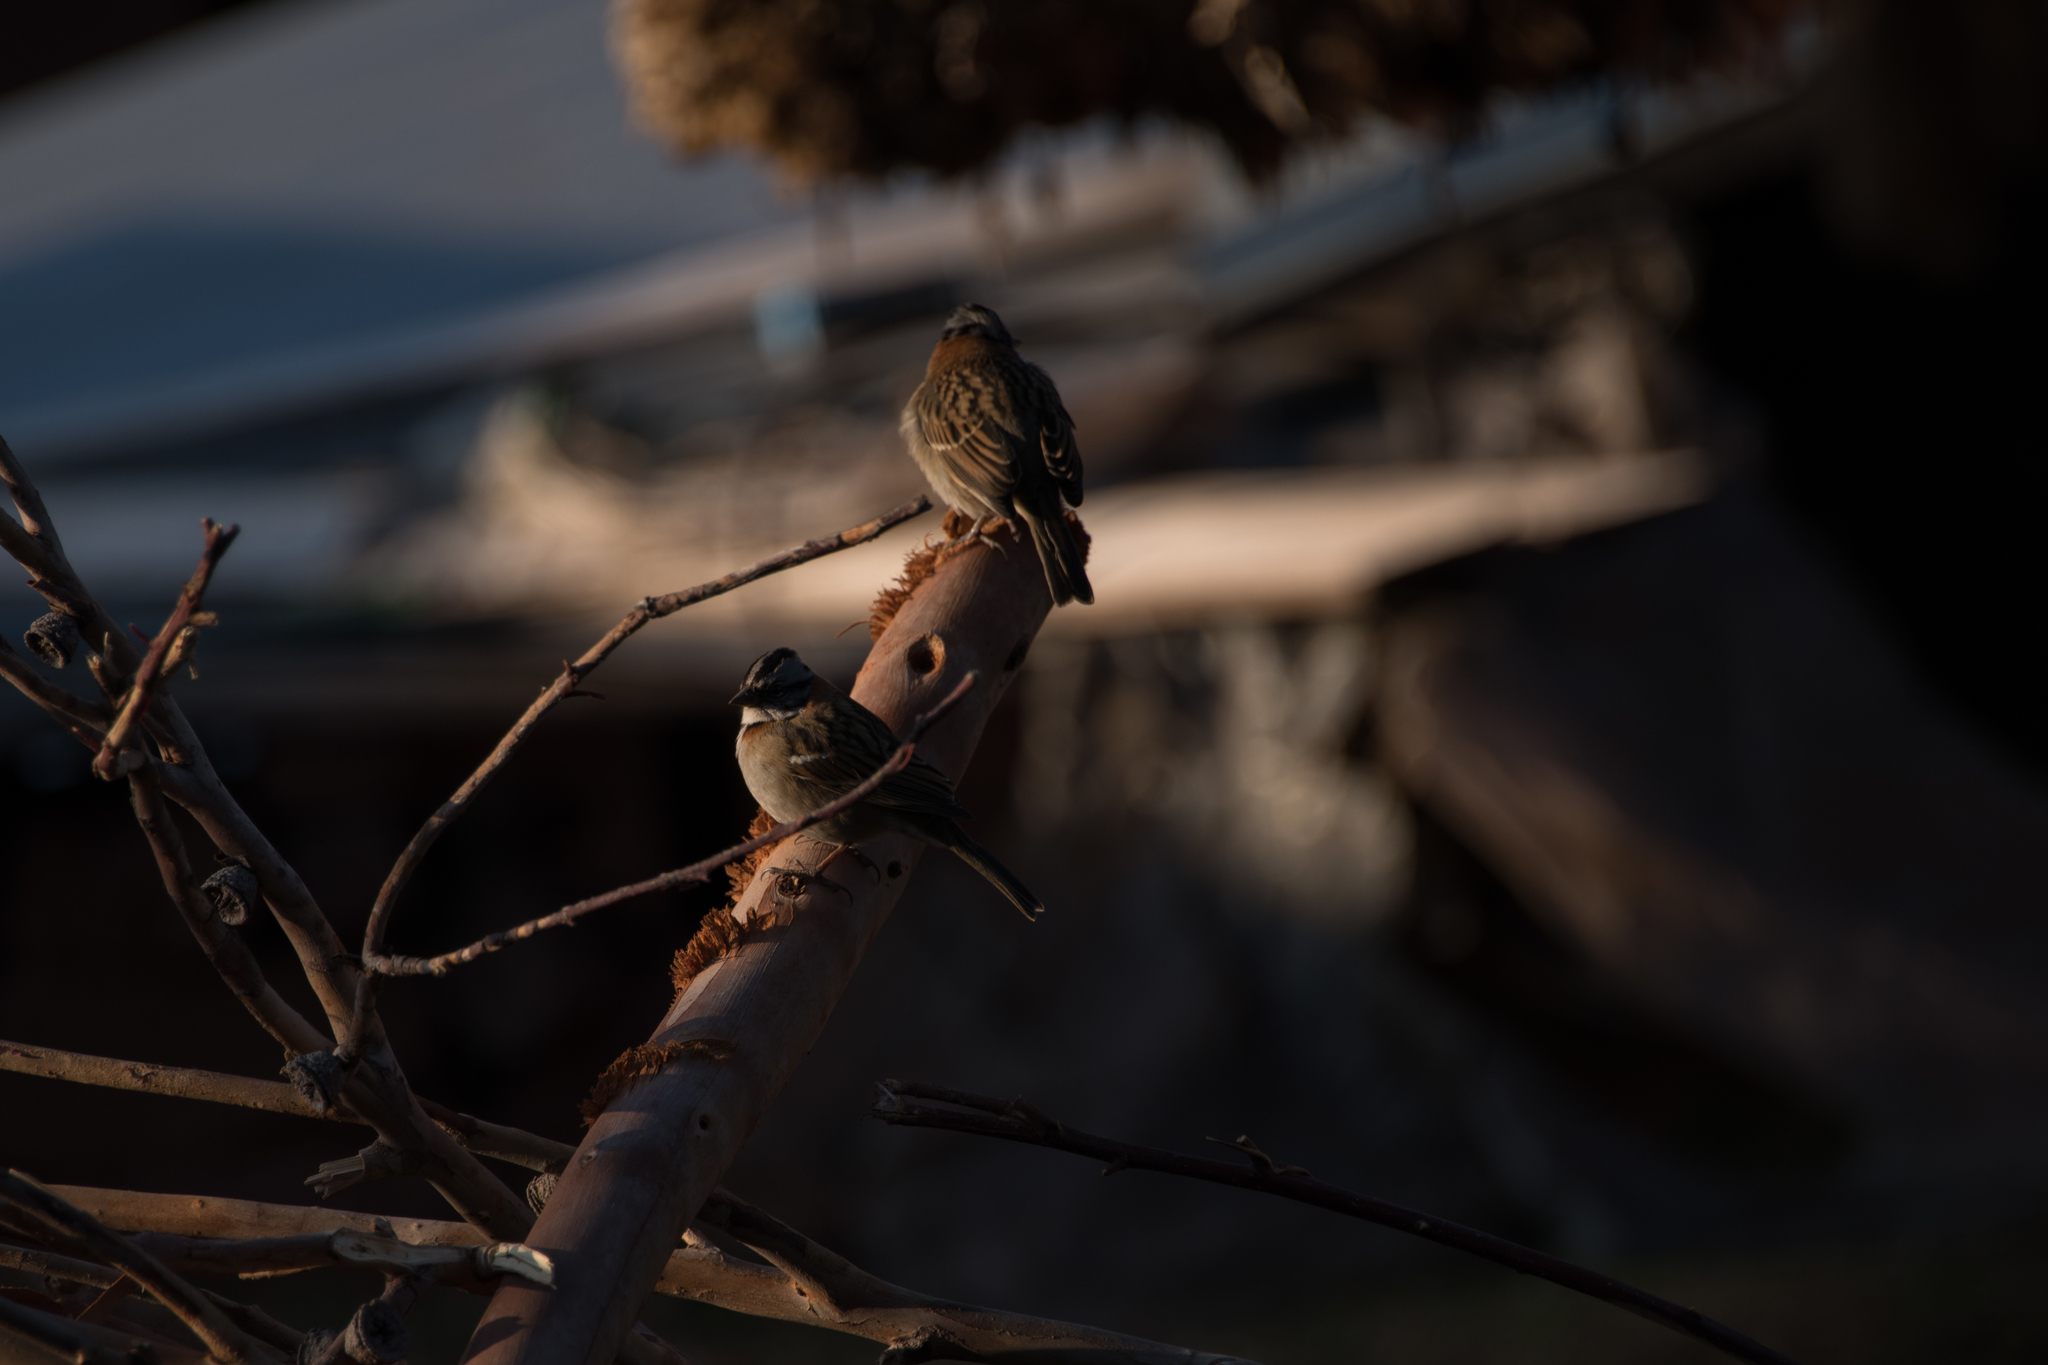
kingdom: Animalia
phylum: Chordata
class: Aves
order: Passeriformes
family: Passerellidae
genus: Zonotrichia
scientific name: Zonotrichia capensis
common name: Rufous-collared sparrow
